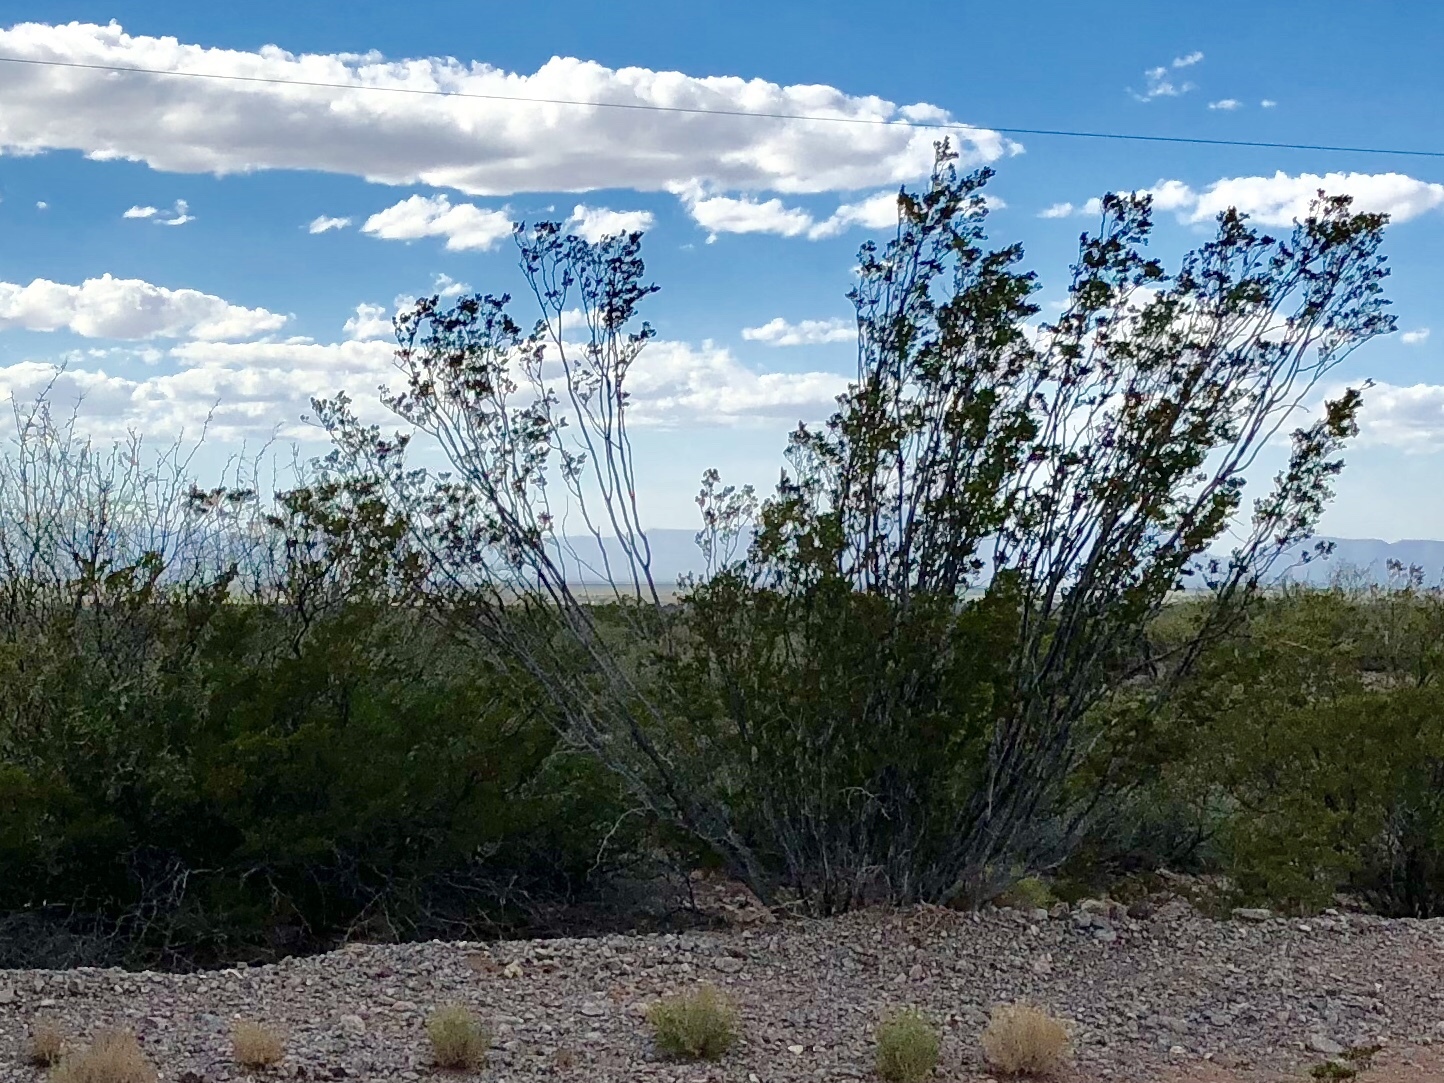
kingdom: Plantae
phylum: Tracheophyta
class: Magnoliopsida
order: Zygophyllales
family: Zygophyllaceae
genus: Larrea
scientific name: Larrea tridentata
